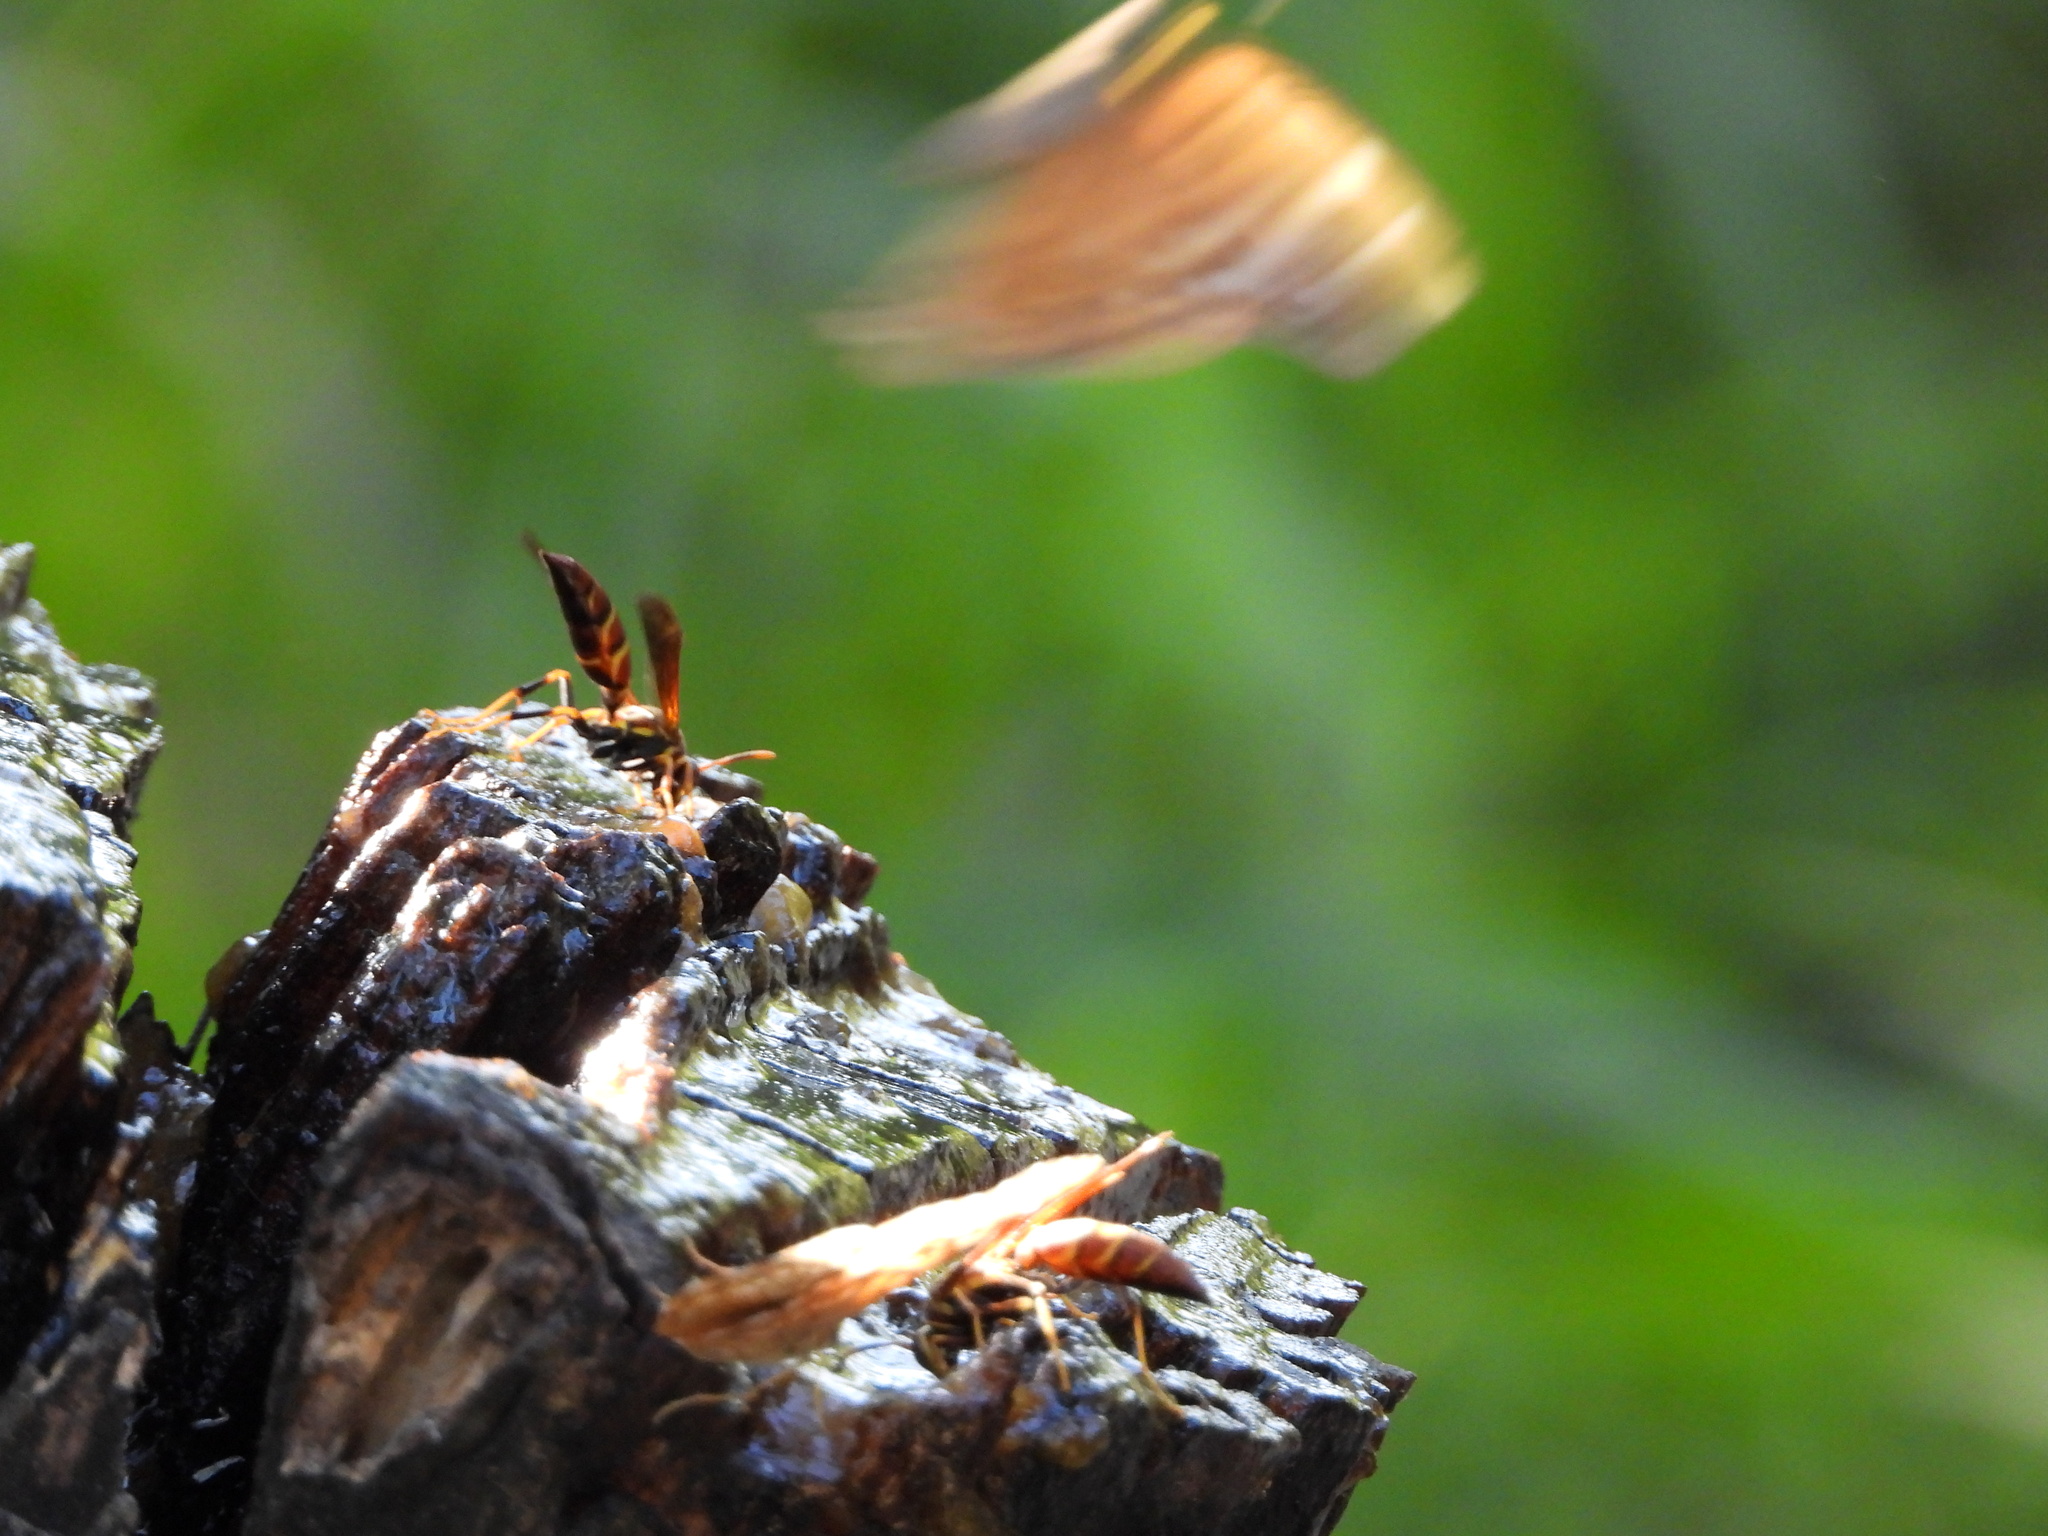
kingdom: Animalia
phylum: Arthropoda
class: Insecta
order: Hymenoptera
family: Eumenidae
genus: Polistes
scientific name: Polistes instabilis
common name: Unstable paper wasp
